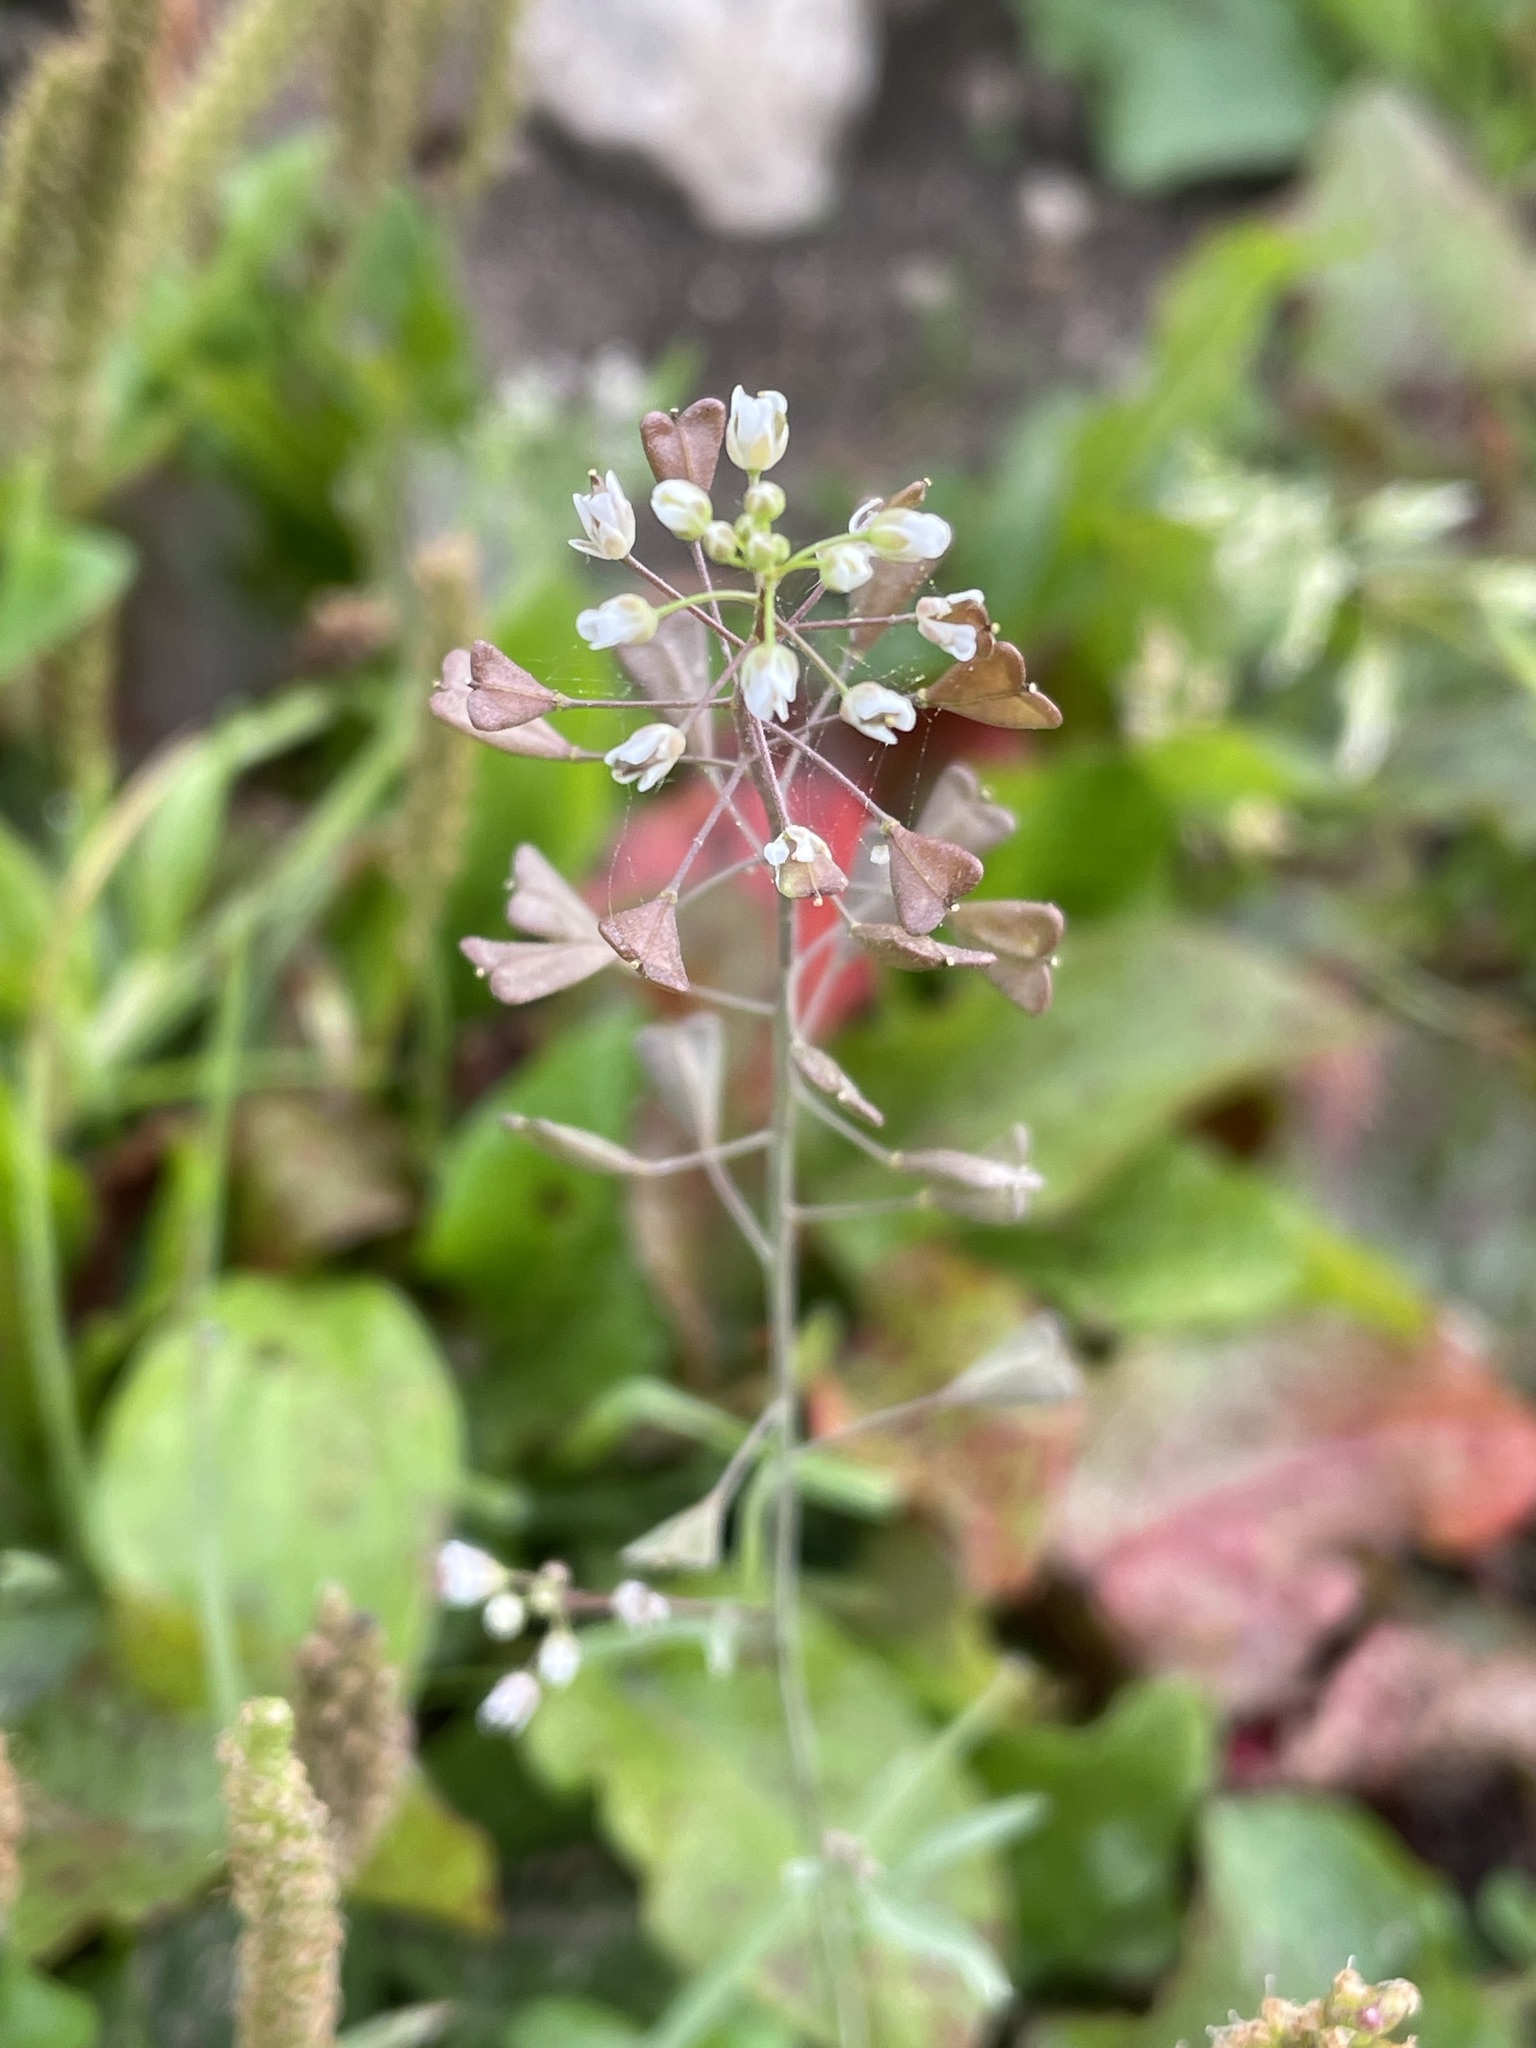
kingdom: Plantae
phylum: Tracheophyta
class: Magnoliopsida
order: Brassicales
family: Brassicaceae
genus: Capsella
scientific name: Capsella bursa-pastoris
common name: Shepherd's purse
